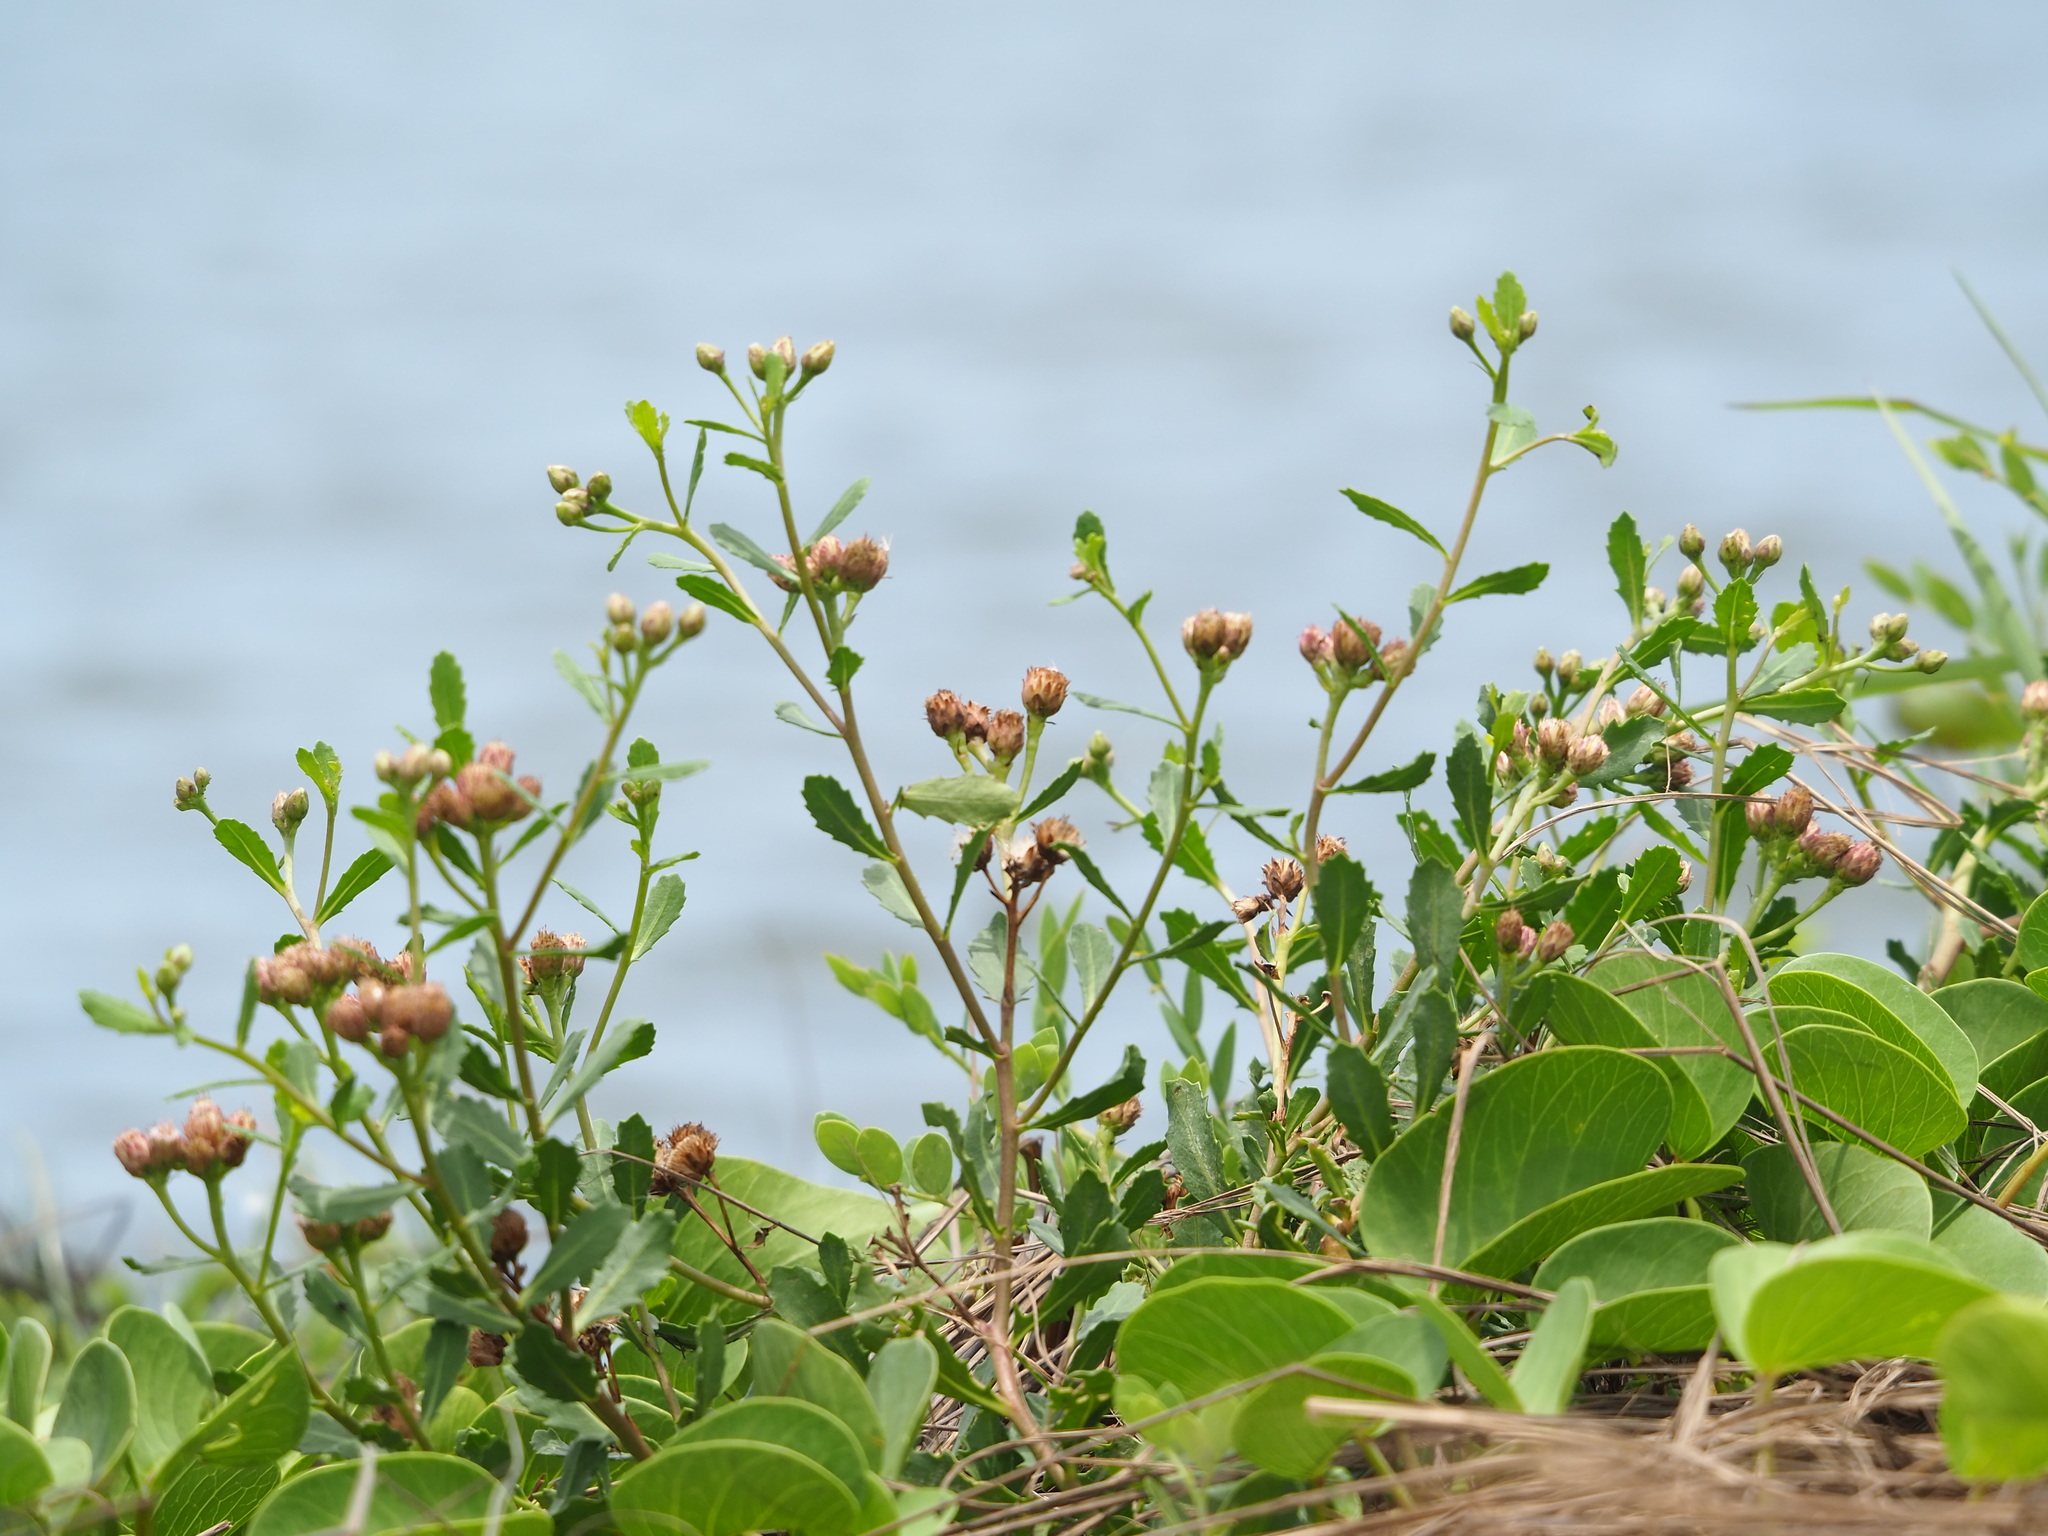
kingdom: Plantae
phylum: Tracheophyta
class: Magnoliopsida
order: Asterales
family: Asteraceae
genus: Pluchea
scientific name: Pluchea pteropoda
